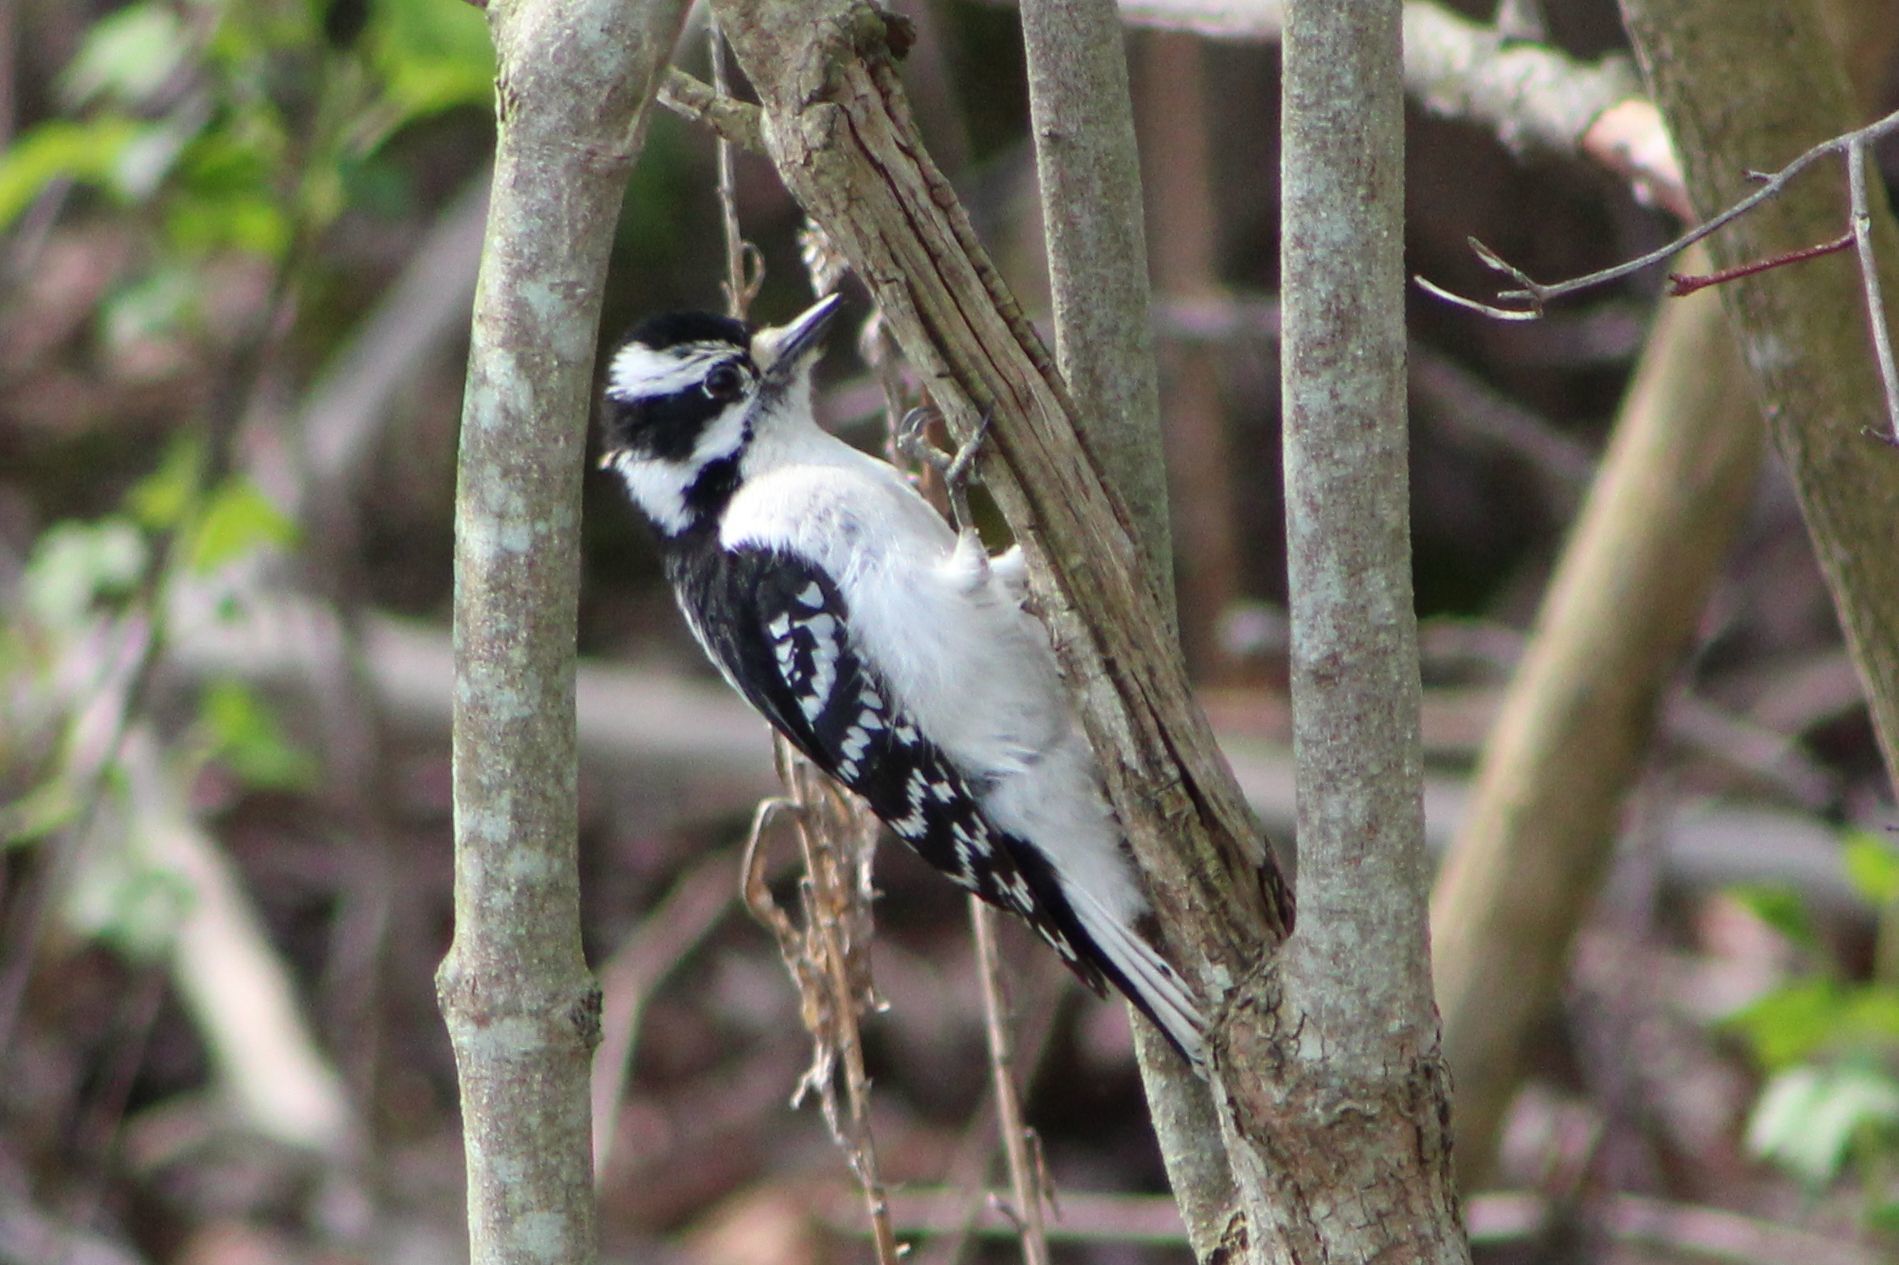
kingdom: Animalia
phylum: Chordata
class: Aves
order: Piciformes
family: Picidae
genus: Dryobates
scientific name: Dryobates pubescens
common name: Downy woodpecker
